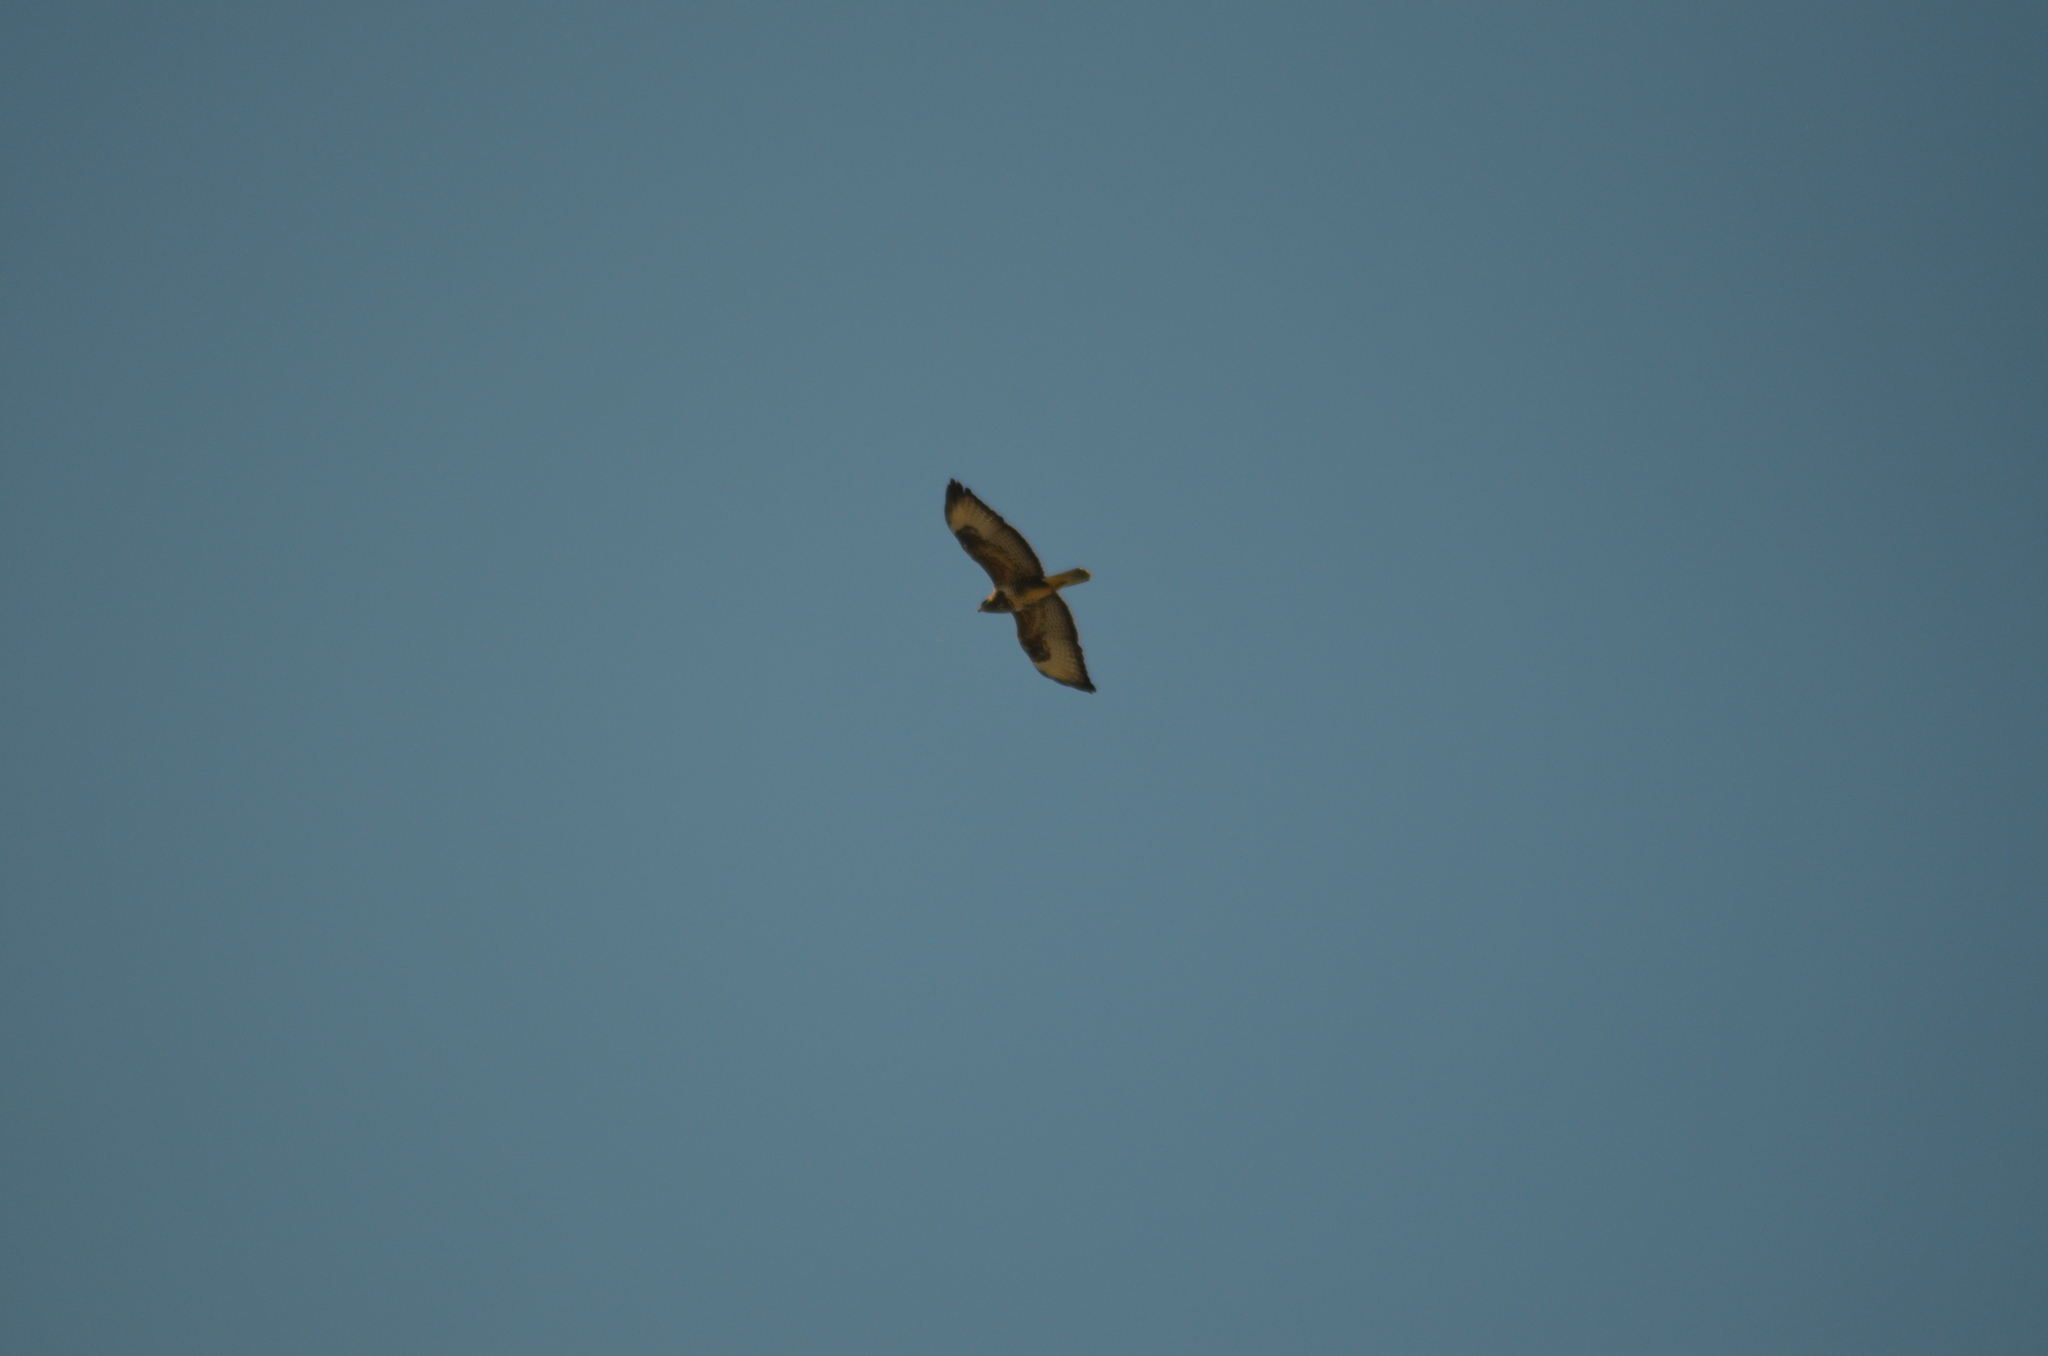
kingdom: Animalia
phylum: Chordata
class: Aves
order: Accipitriformes
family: Accipitridae
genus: Buteo
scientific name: Buteo buteo
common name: Common buzzard
